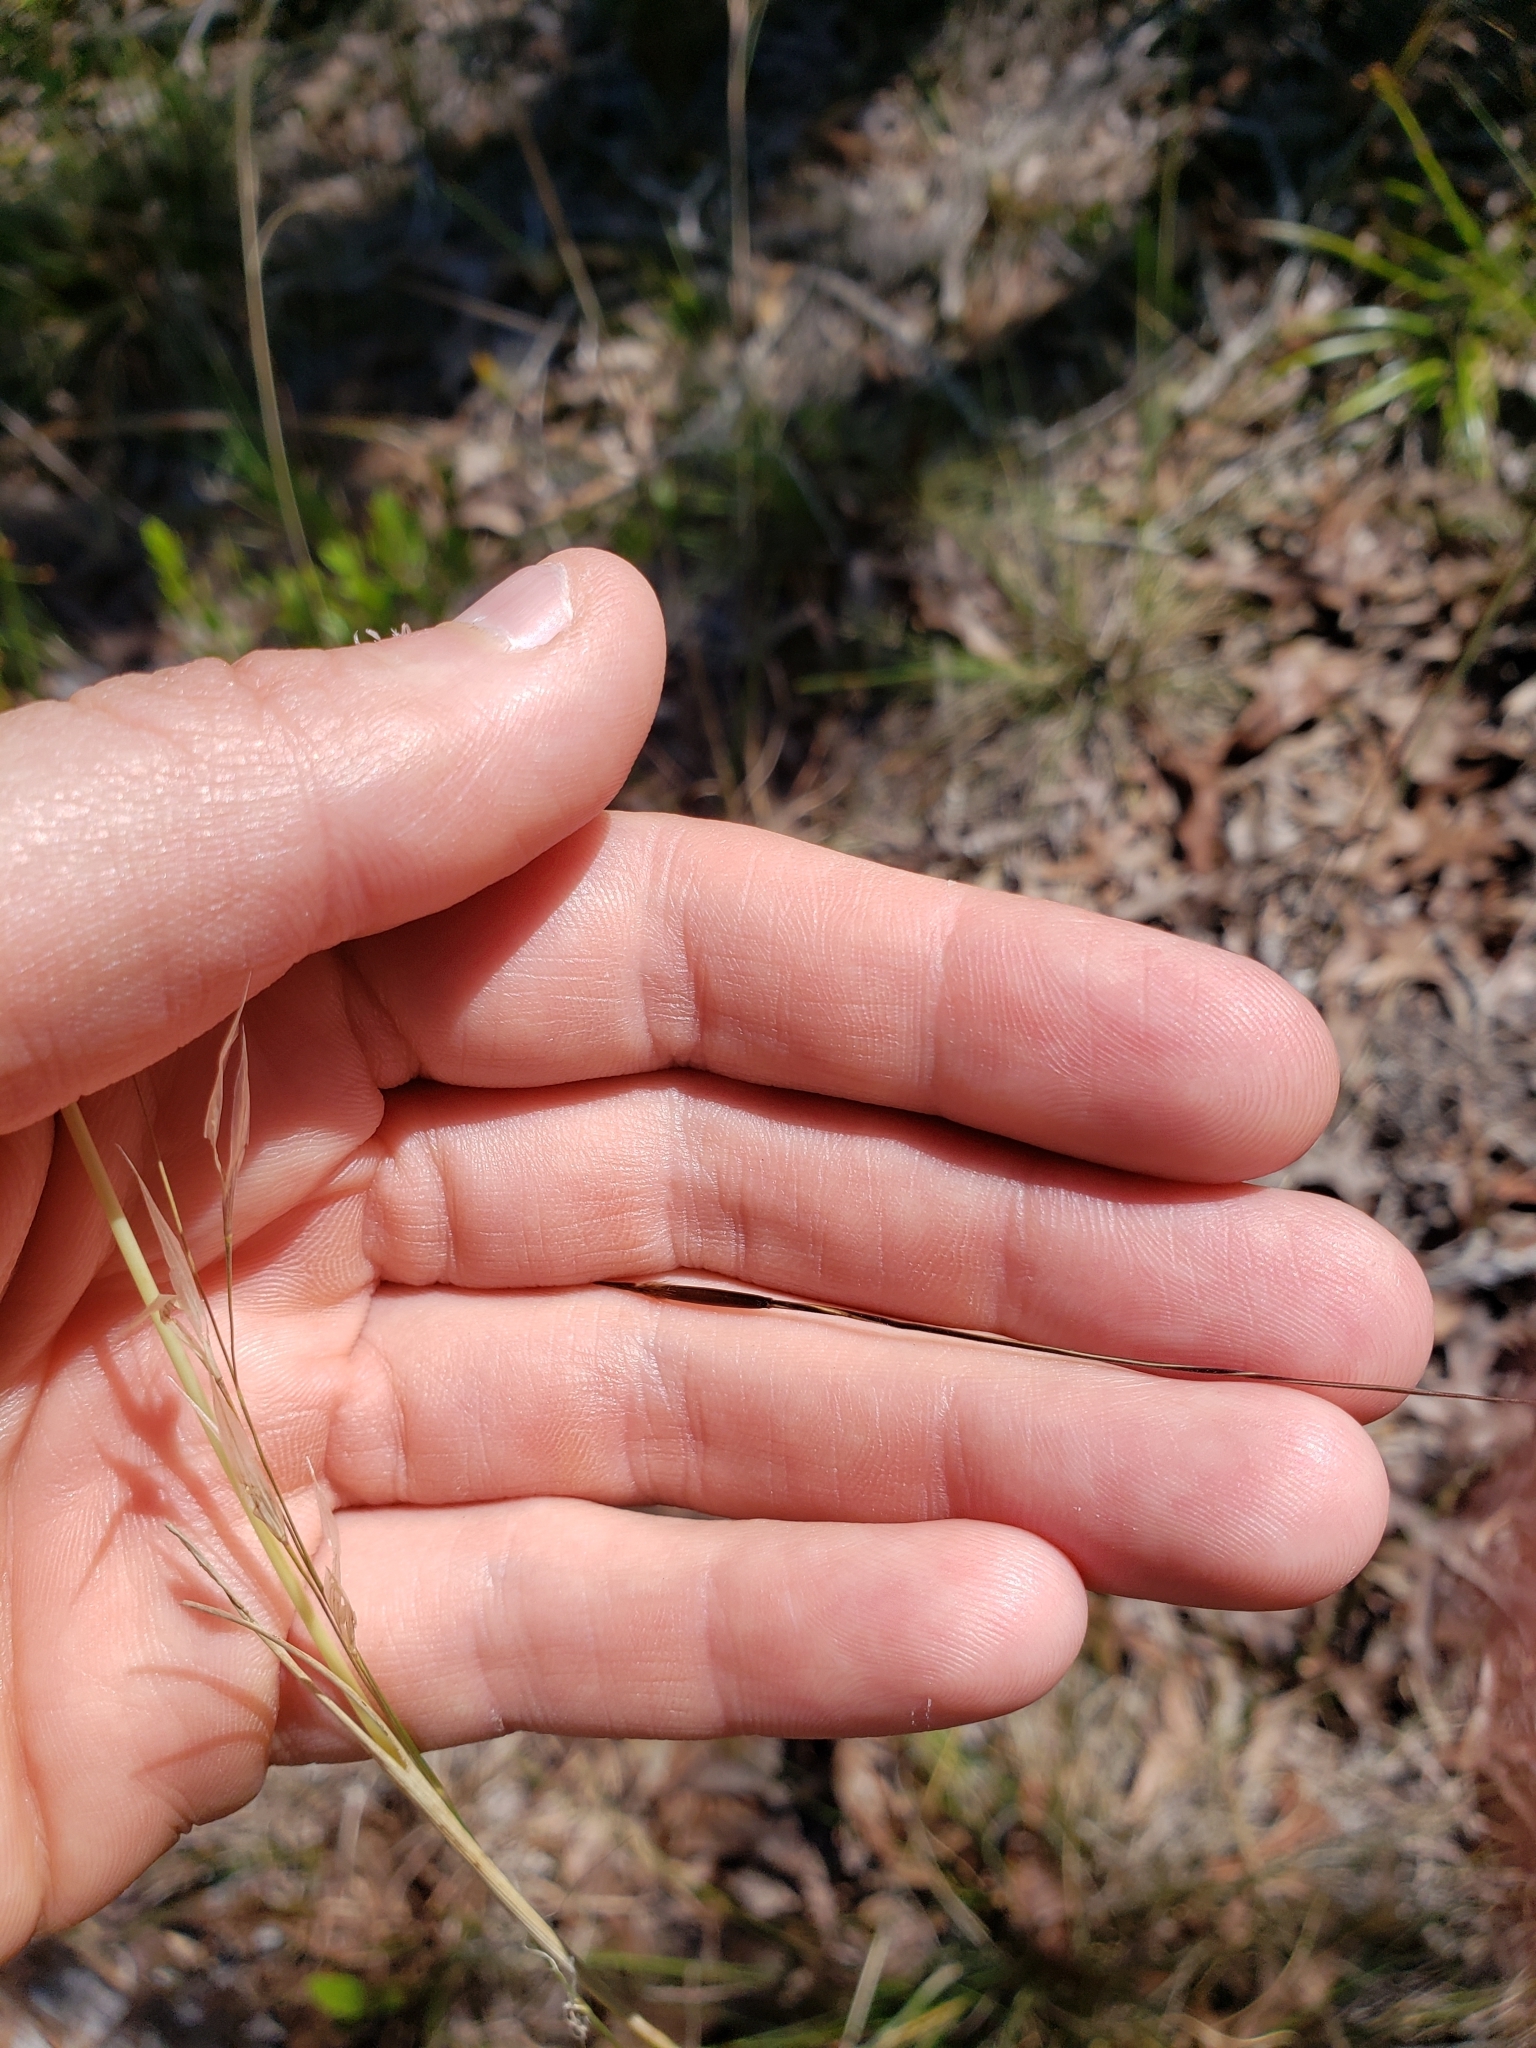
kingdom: Plantae
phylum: Tracheophyta
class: Liliopsida
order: Poales
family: Poaceae
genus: Piptochaetium
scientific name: Piptochaetium avenacioides
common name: Florida needlegrass
